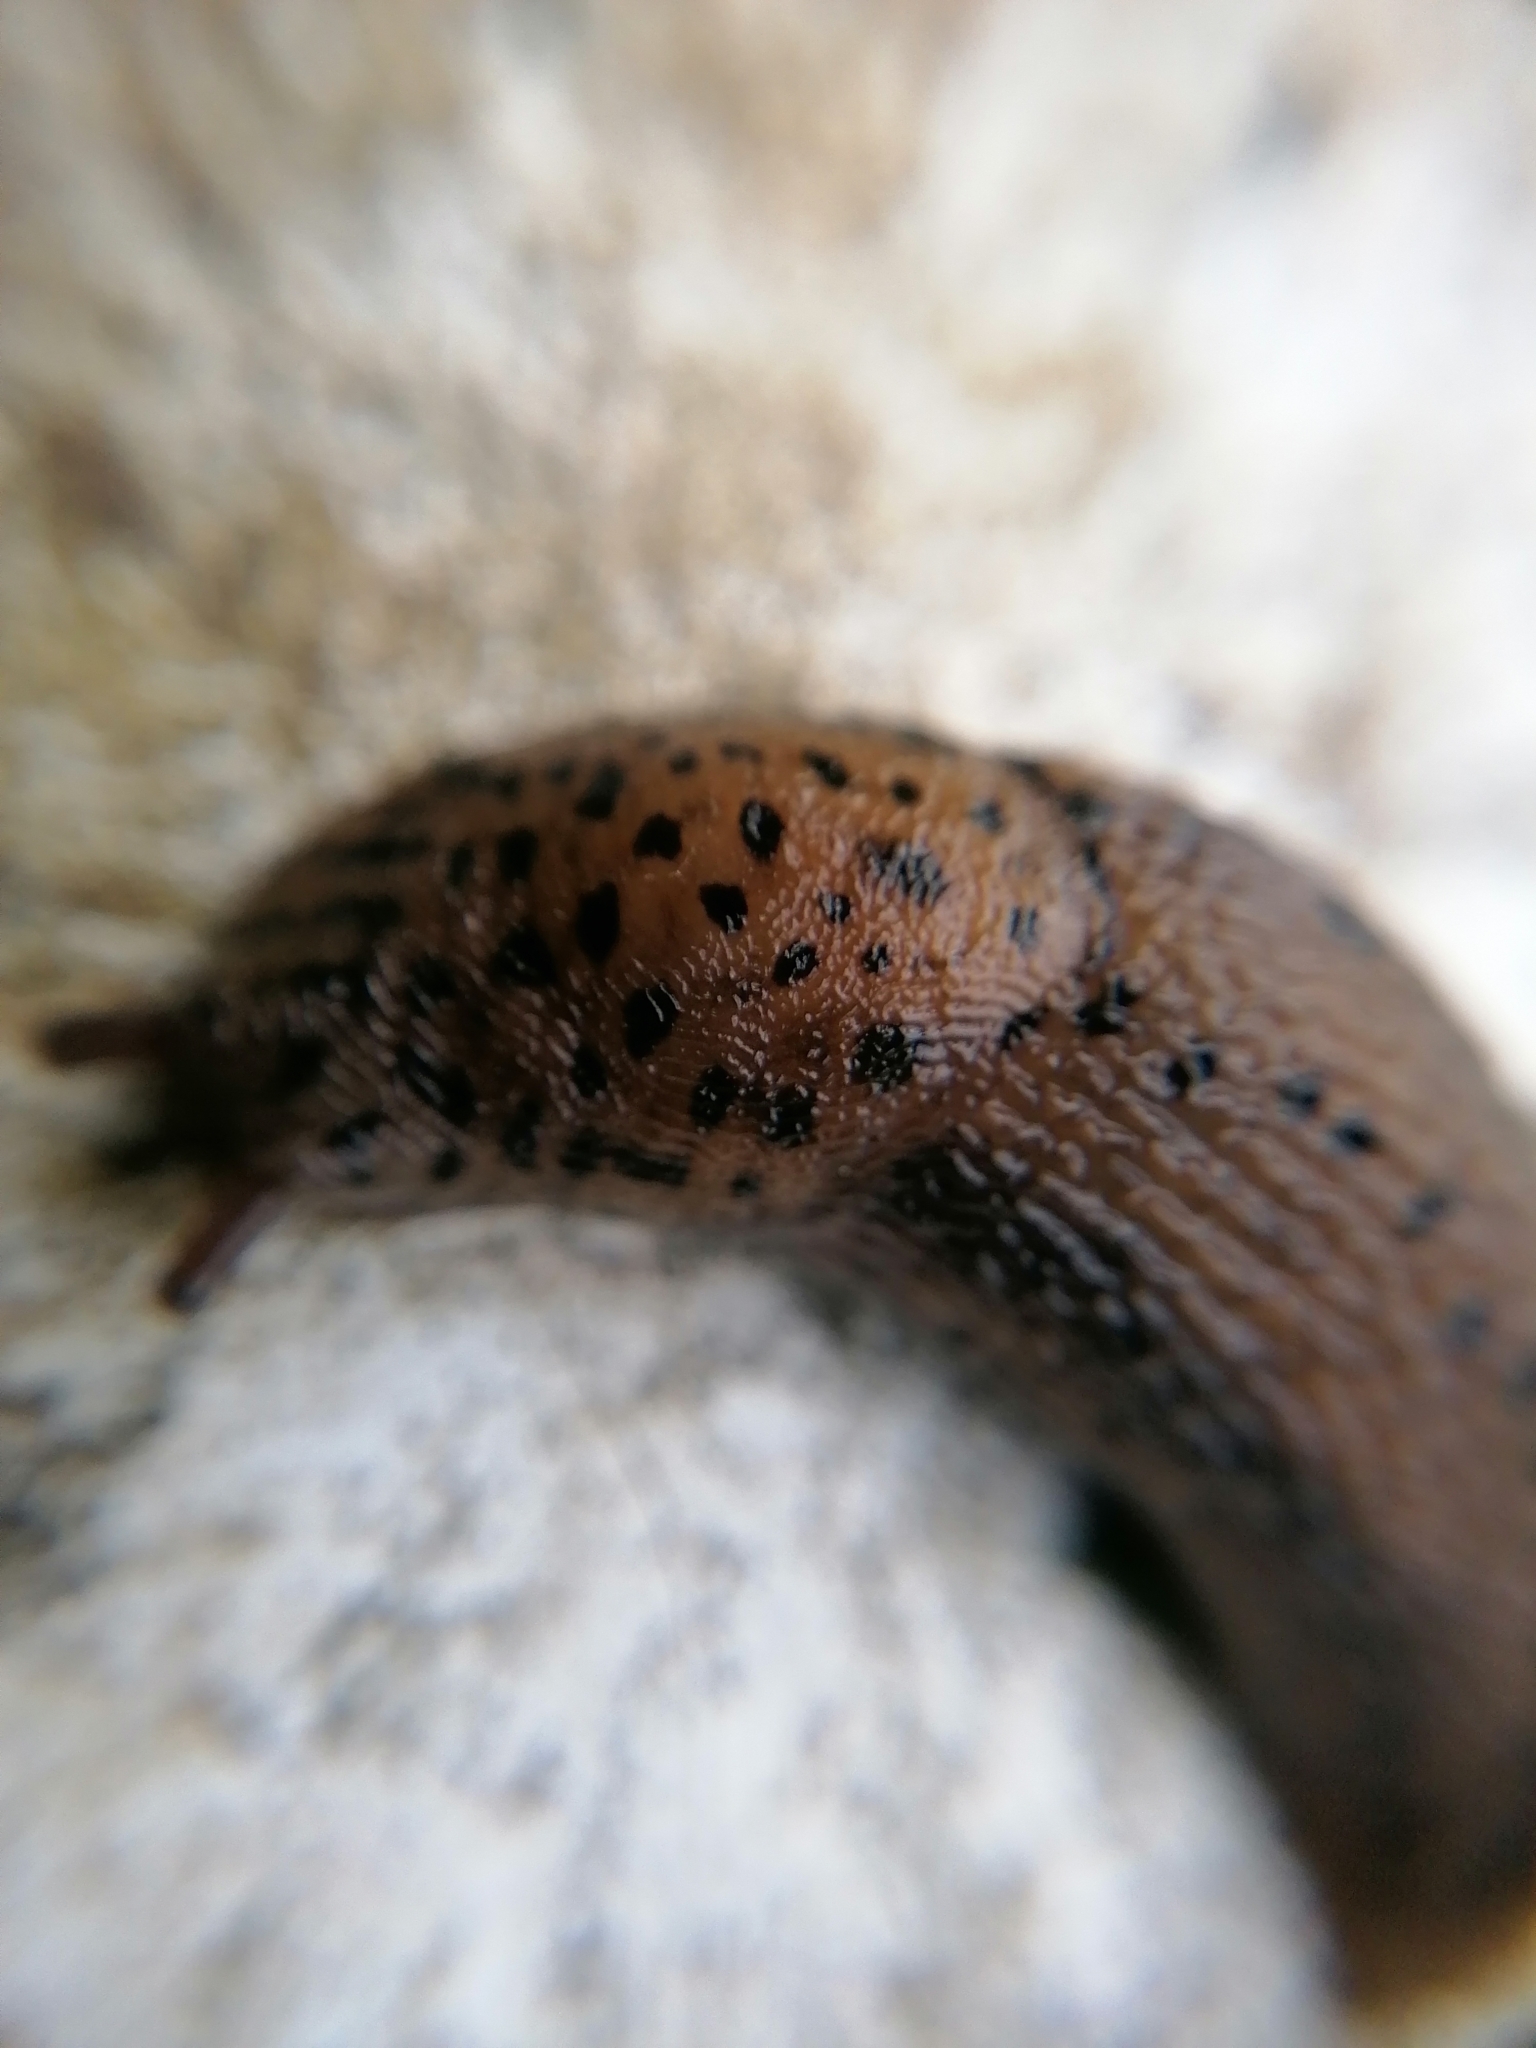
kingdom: Animalia
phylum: Mollusca
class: Gastropoda
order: Stylommatophora
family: Limacidae
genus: Limax
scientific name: Limax maximus
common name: Great grey slug
